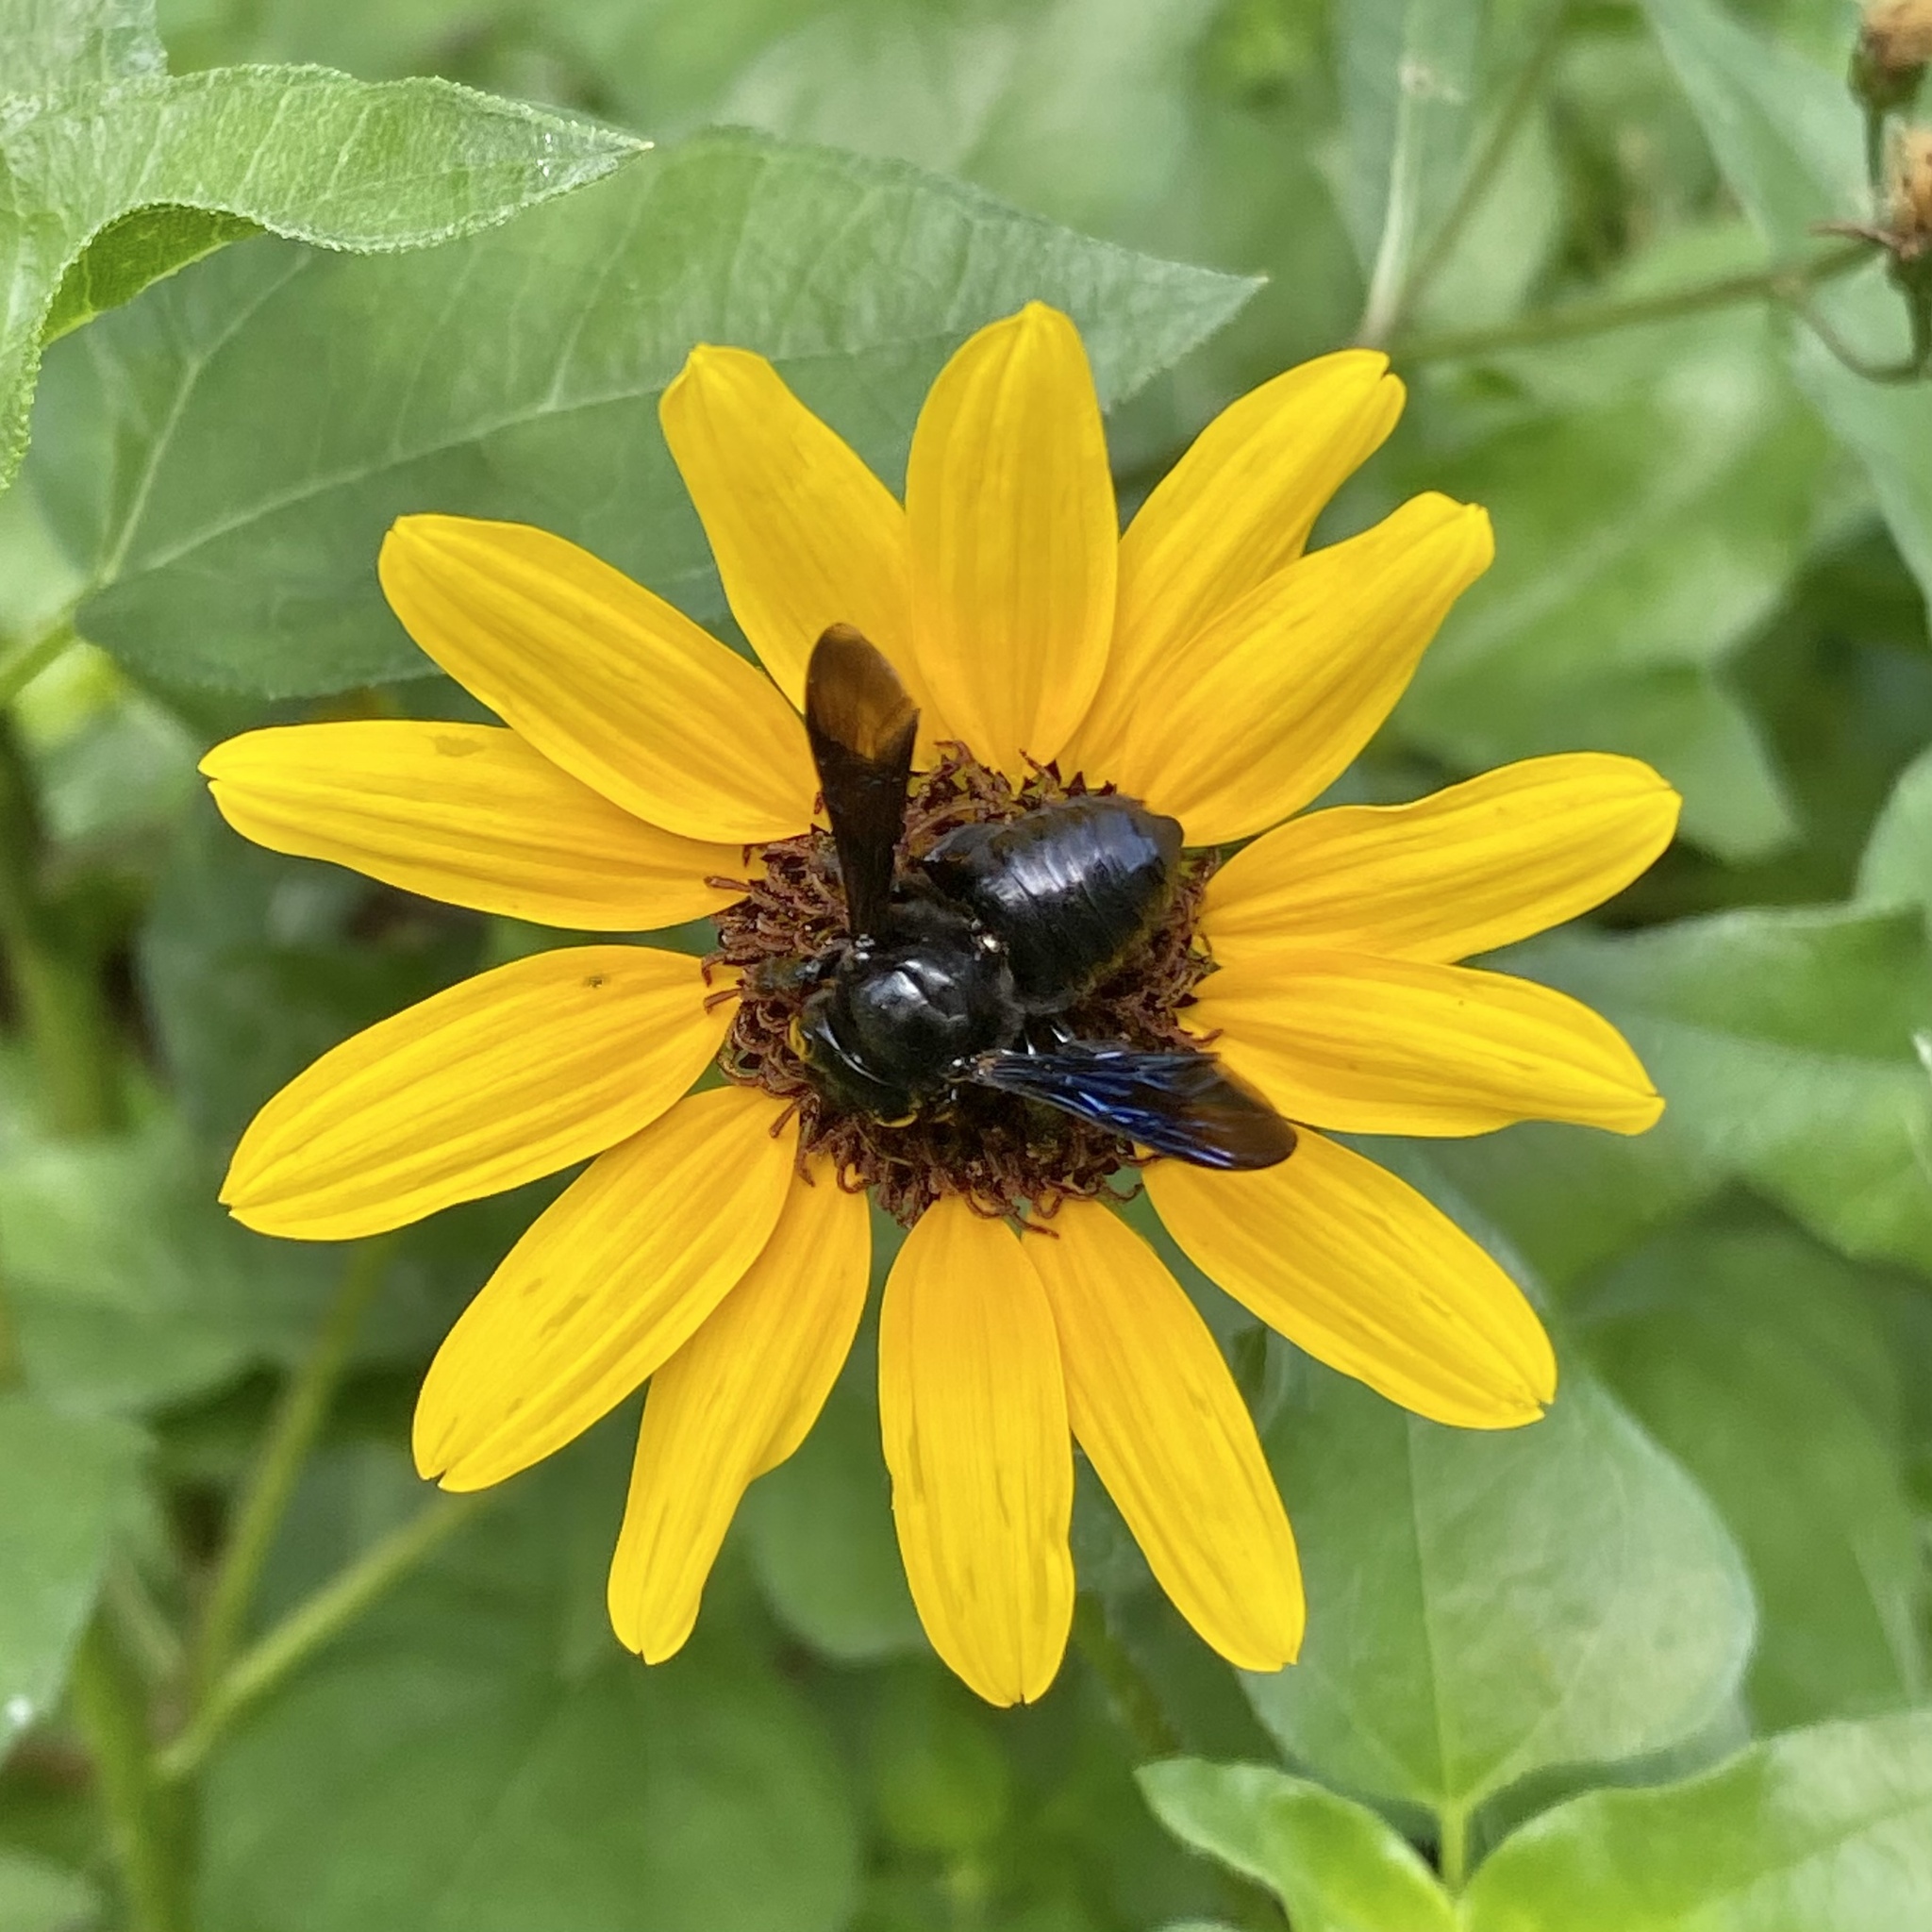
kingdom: Animalia
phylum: Arthropoda
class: Insecta
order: Hymenoptera
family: Megachilidae
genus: Megachile
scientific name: Megachile xylocopoides
